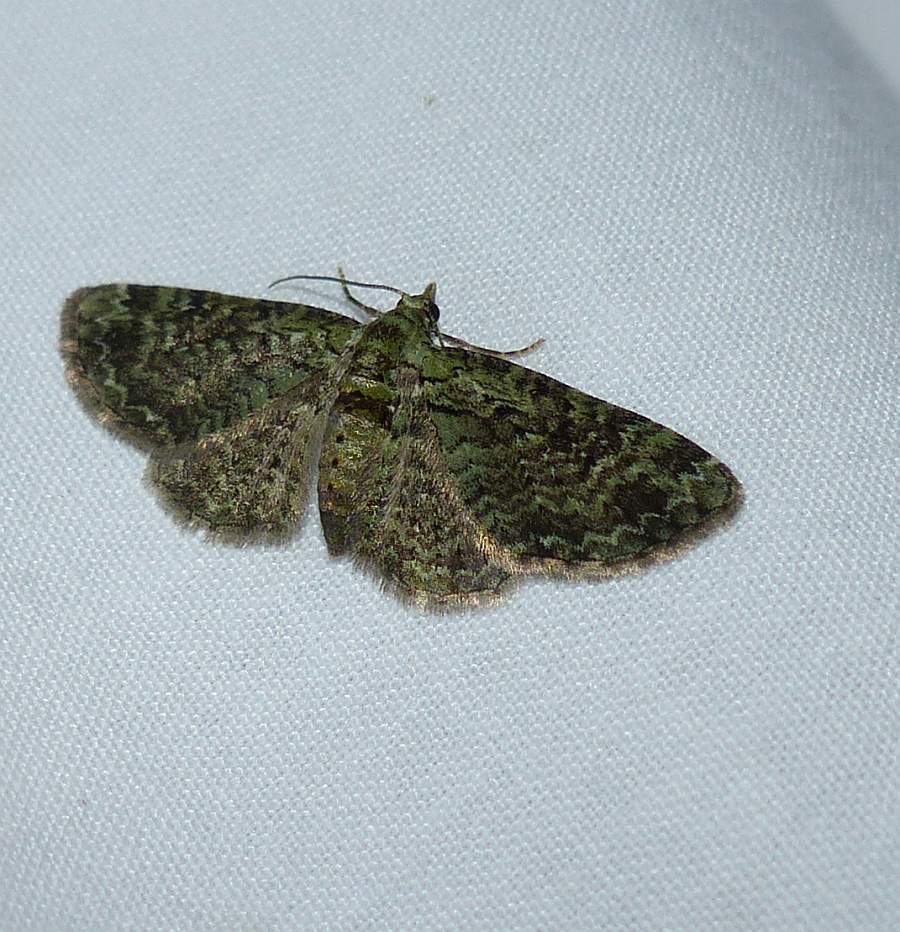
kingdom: Animalia
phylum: Arthropoda
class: Insecta
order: Lepidoptera
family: Geometridae
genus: Pasiphila
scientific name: Pasiphila rectangulata
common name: Green pug
